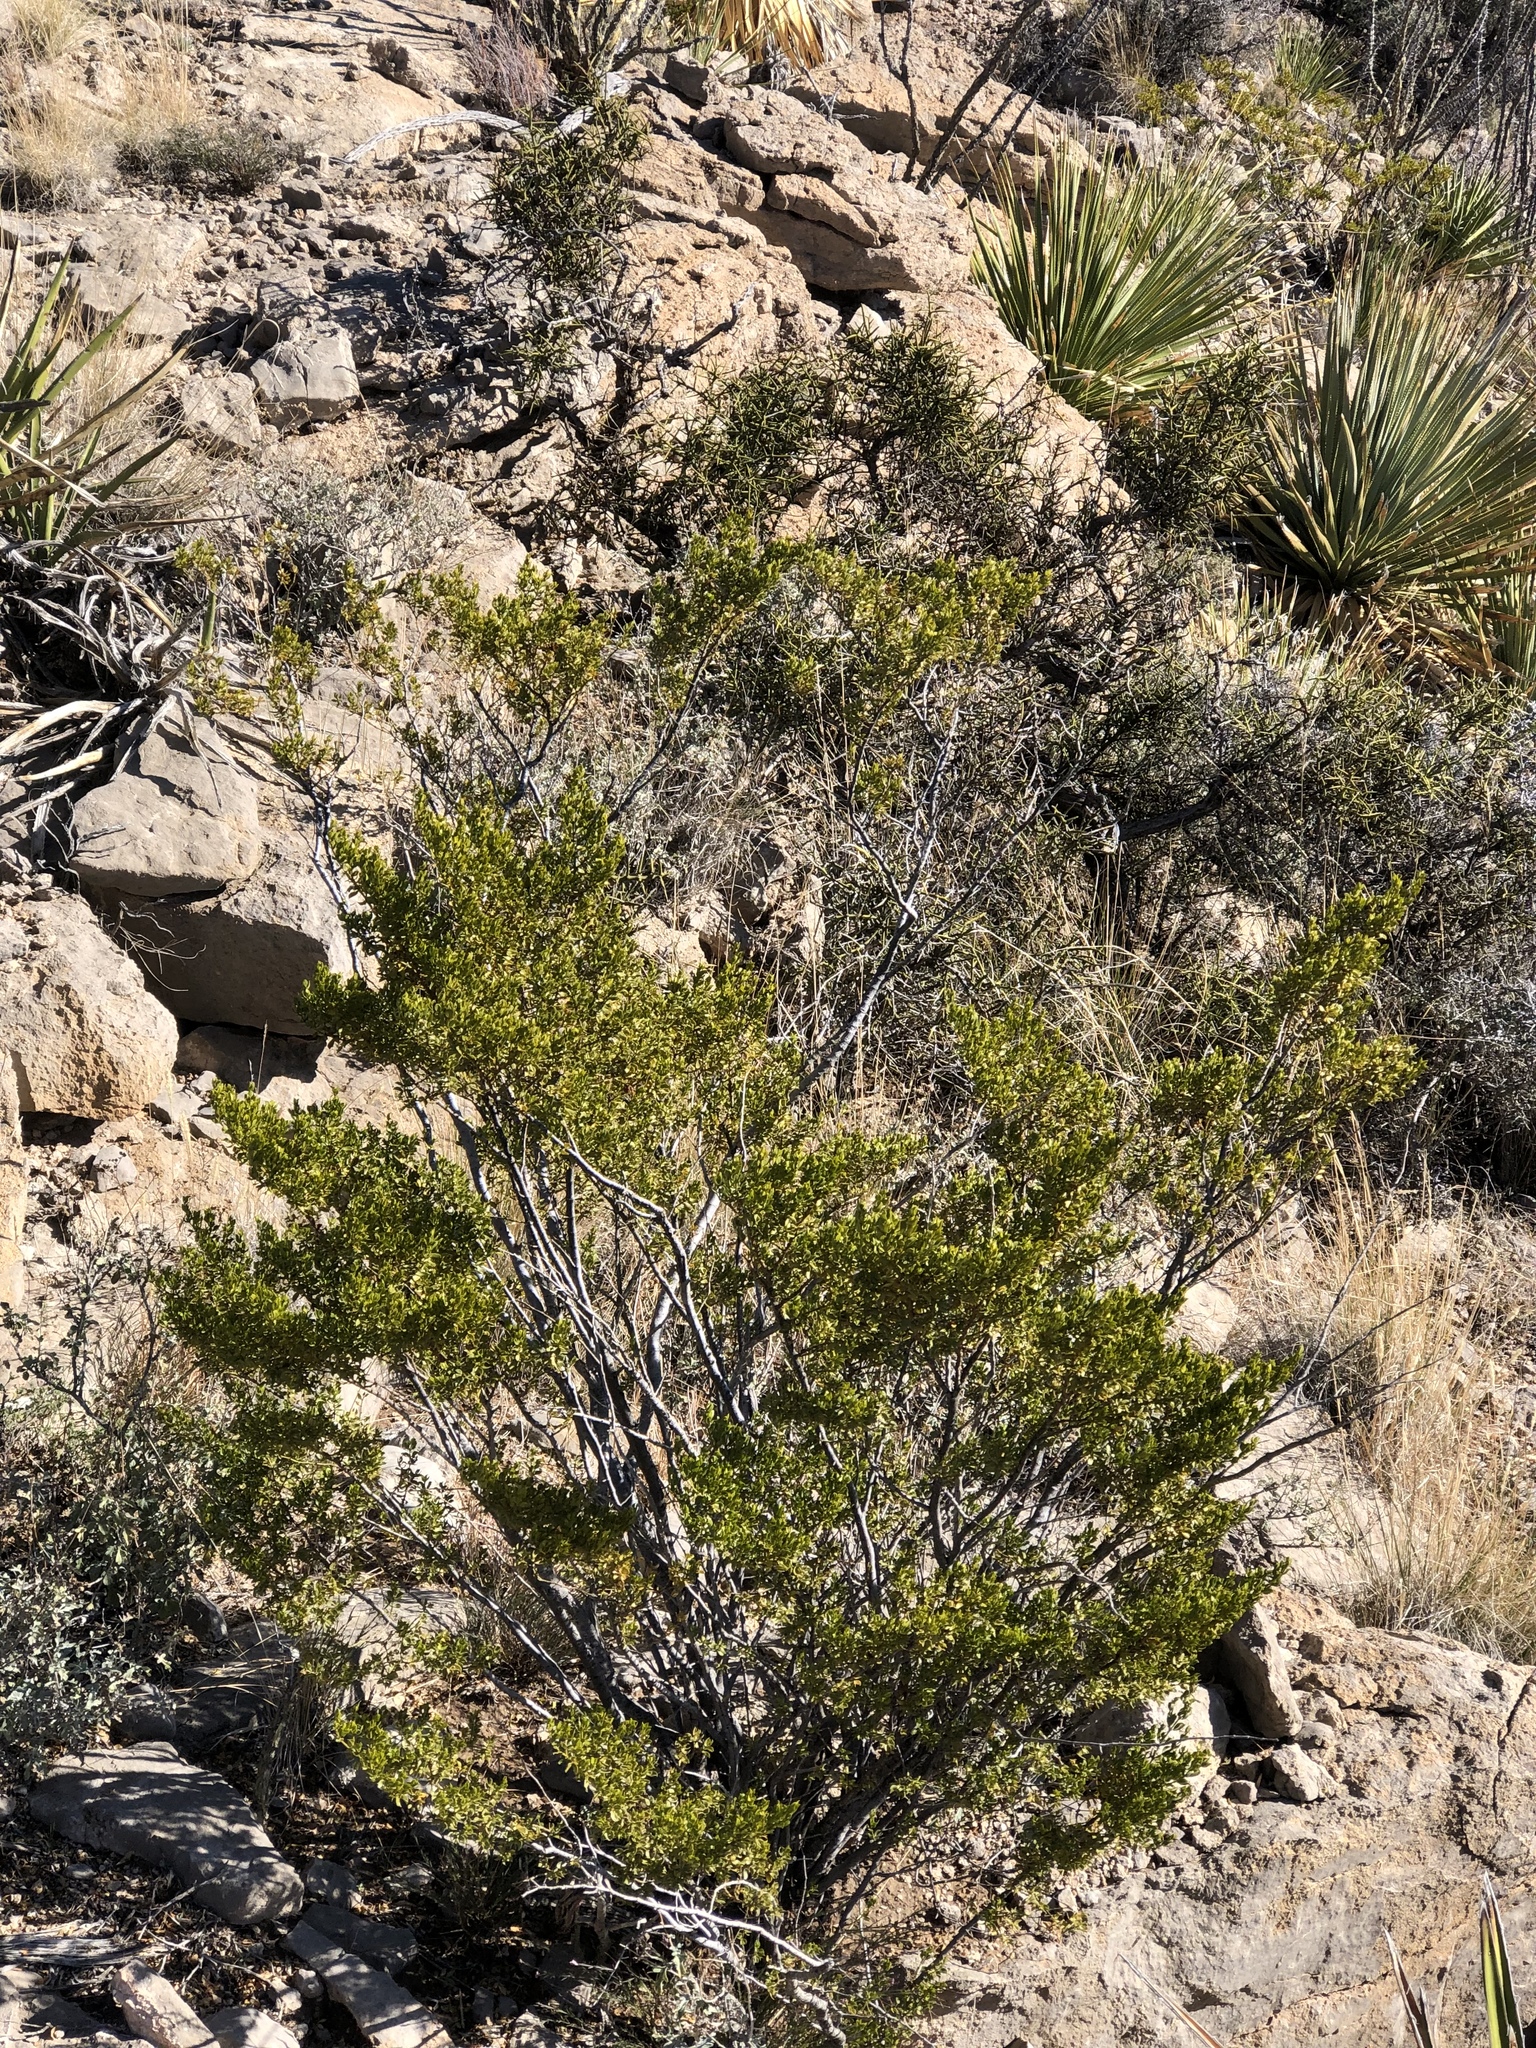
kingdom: Plantae
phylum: Tracheophyta
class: Magnoliopsida
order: Zygophyllales
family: Zygophyllaceae
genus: Larrea
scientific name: Larrea tridentata
